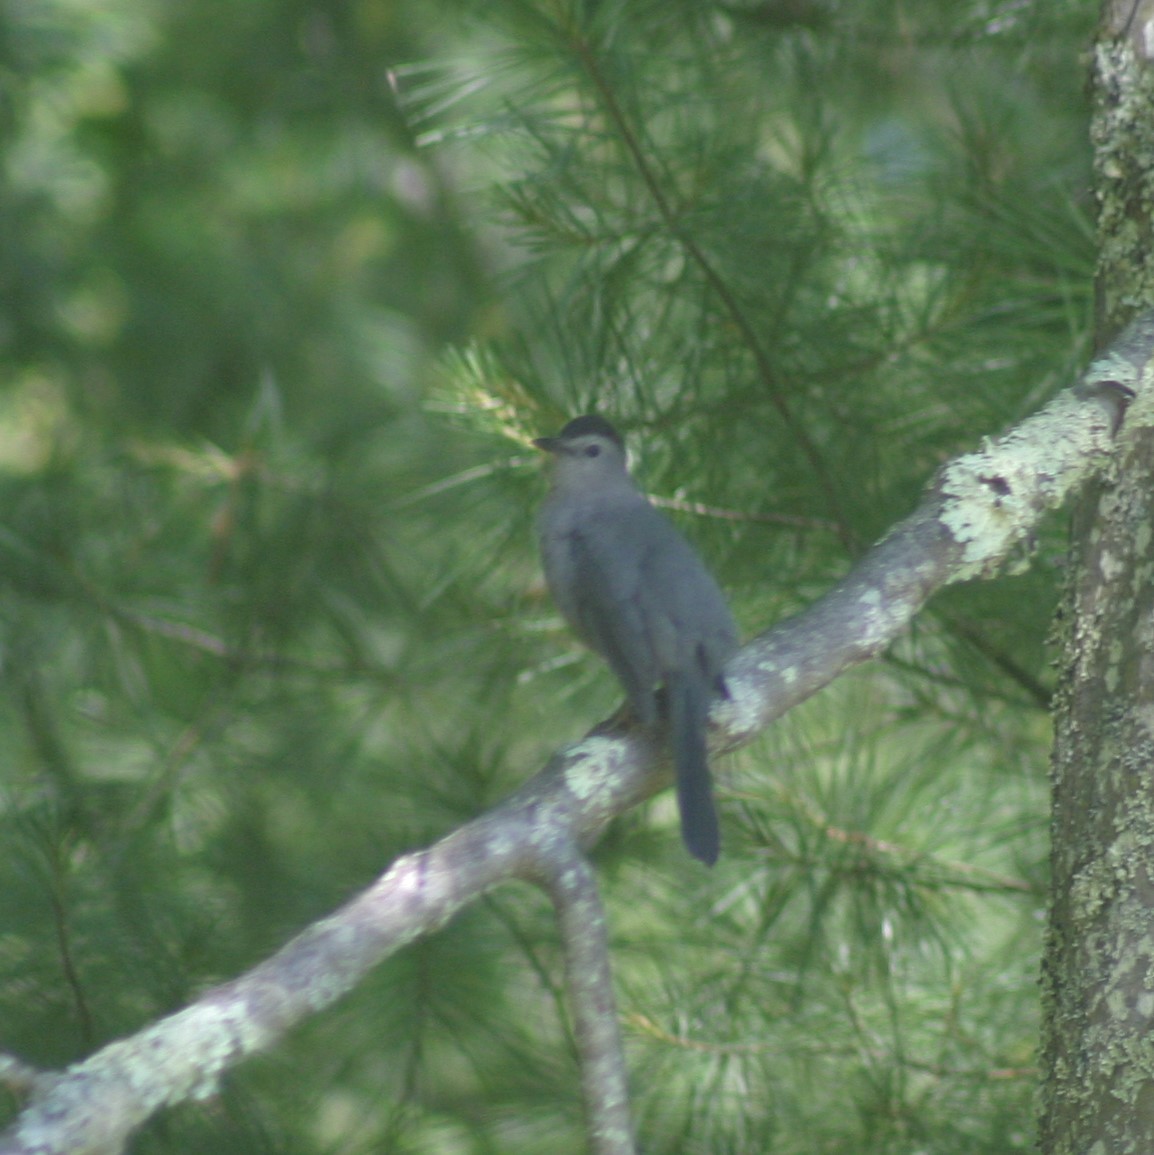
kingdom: Animalia
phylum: Chordata
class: Aves
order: Passeriformes
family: Mimidae
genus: Dumetella
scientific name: Dumetella carolinensis
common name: Gray catbird
